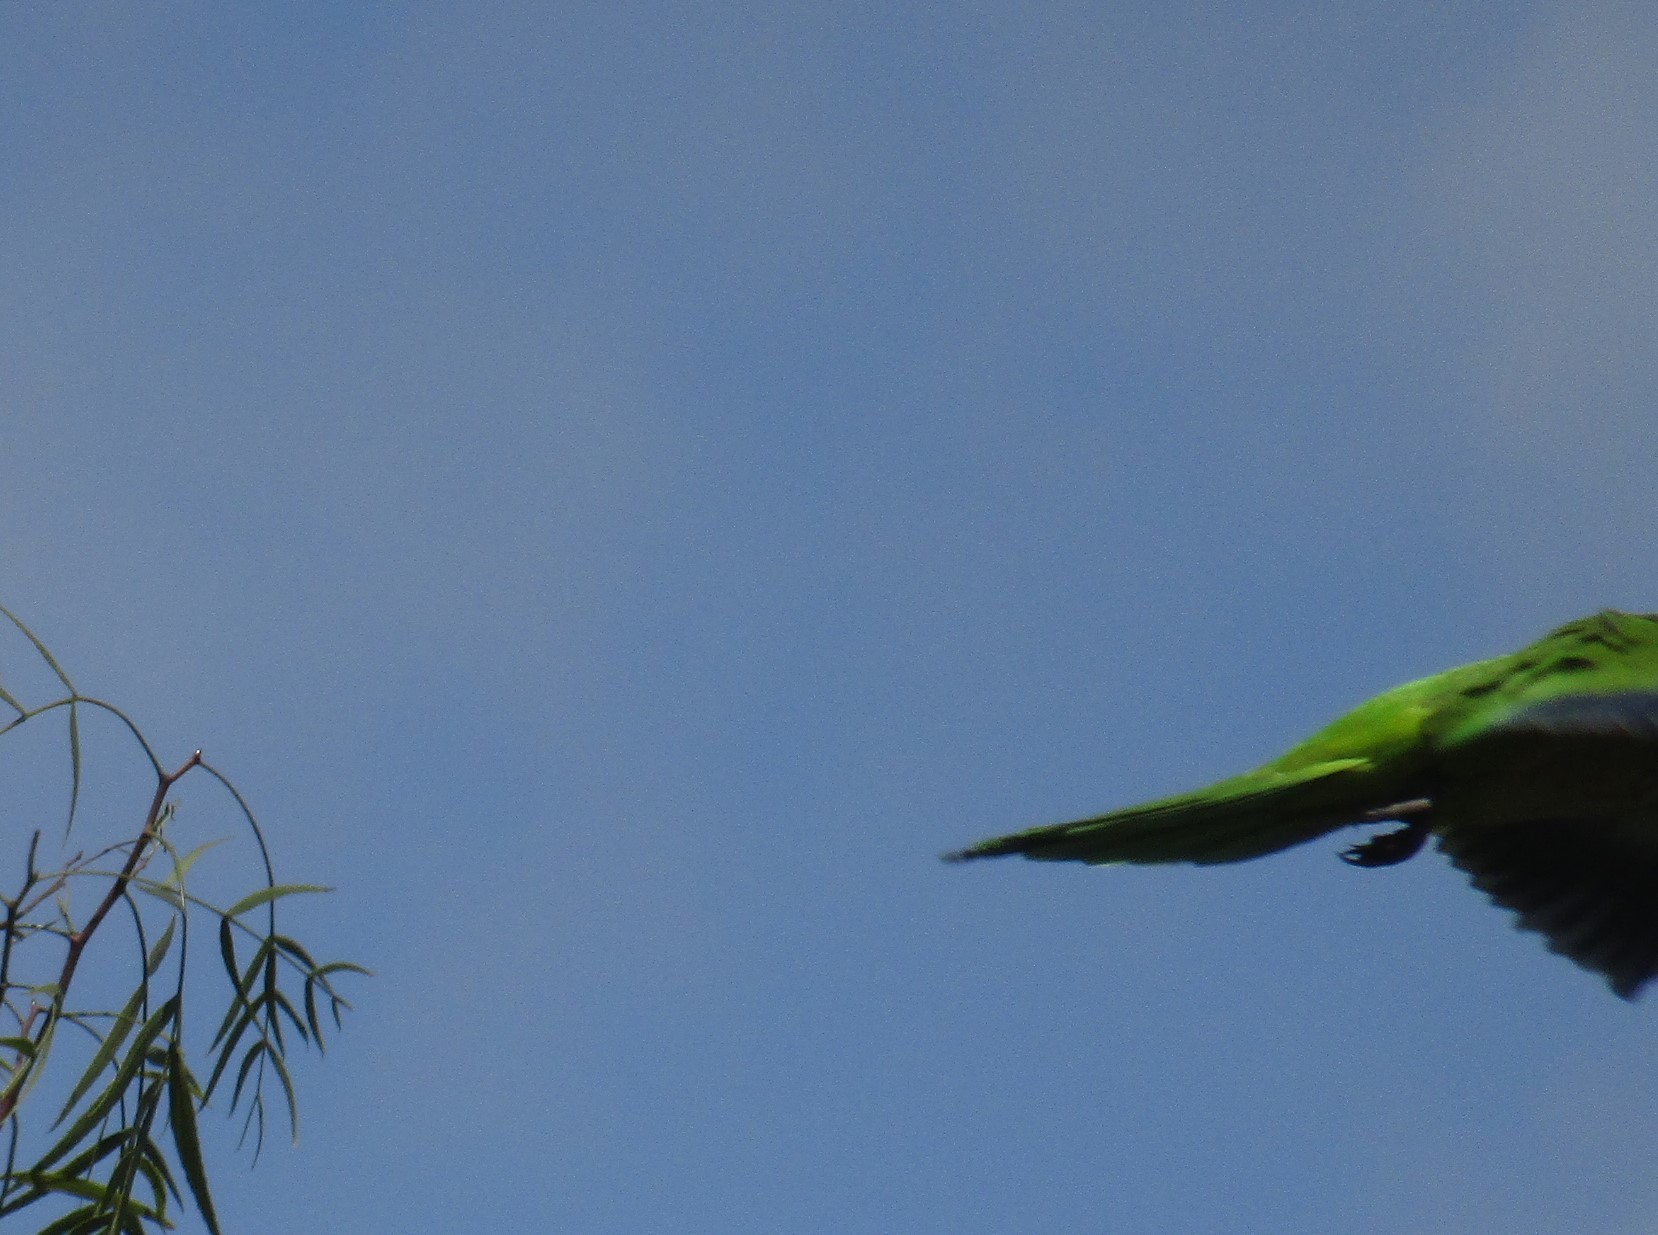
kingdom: Animalia
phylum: Chordata
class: Aves
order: Psittaciformes
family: Psittacidae
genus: Myiopsitta
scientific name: Myiopsitta monachus
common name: Monk parakeet
